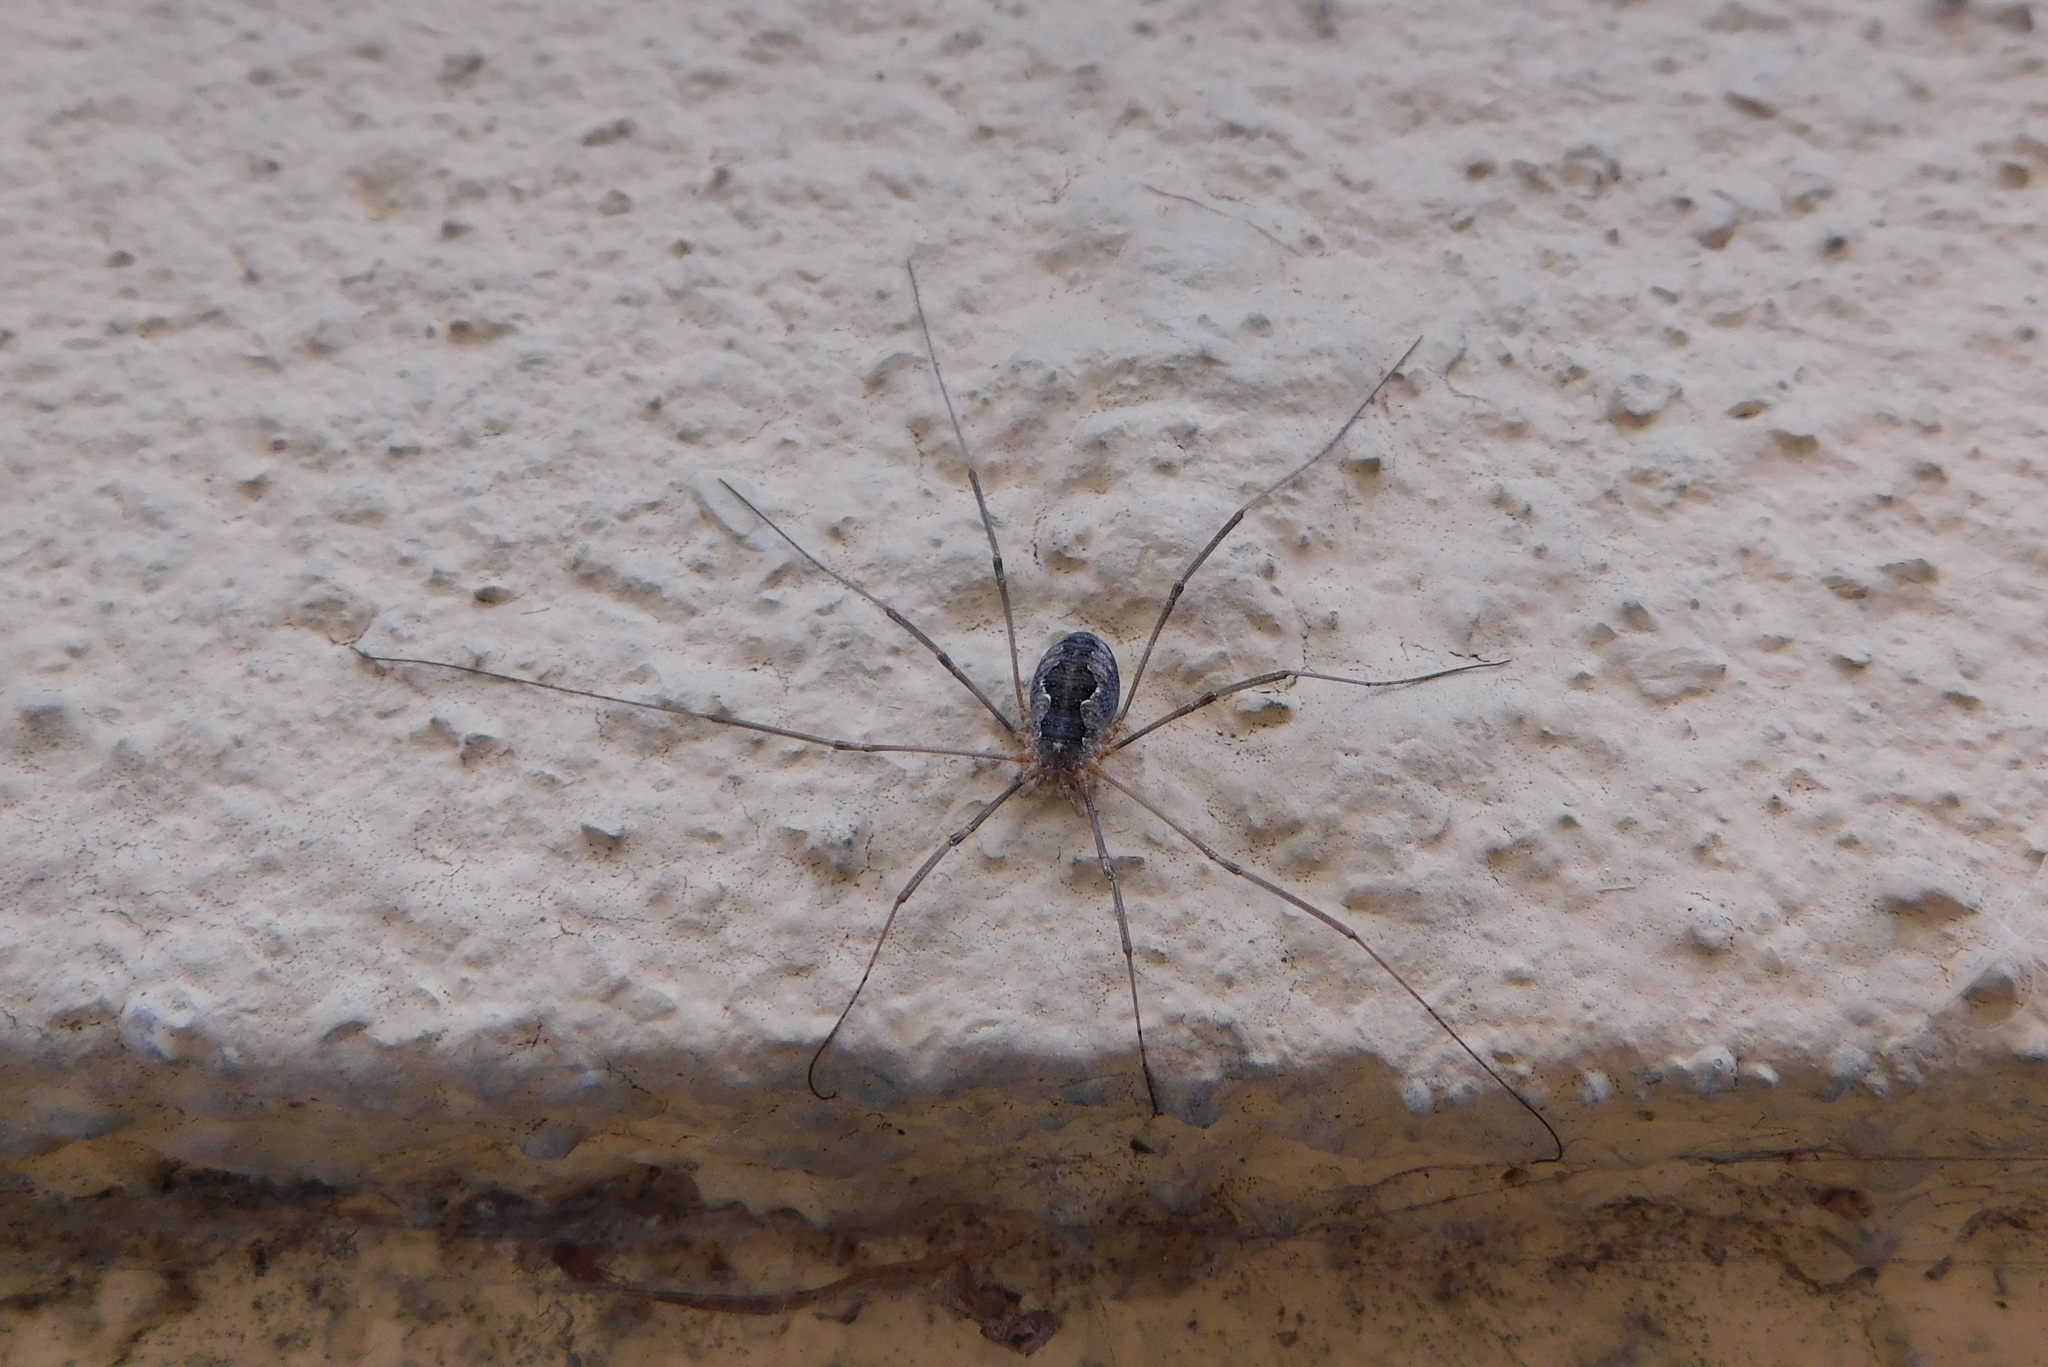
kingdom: Animalia
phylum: Arthropoda
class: Arachnida
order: Opiliones
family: Phalangiidae
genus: Phalangium
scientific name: Phalangium opilio
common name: Daddy longleg
